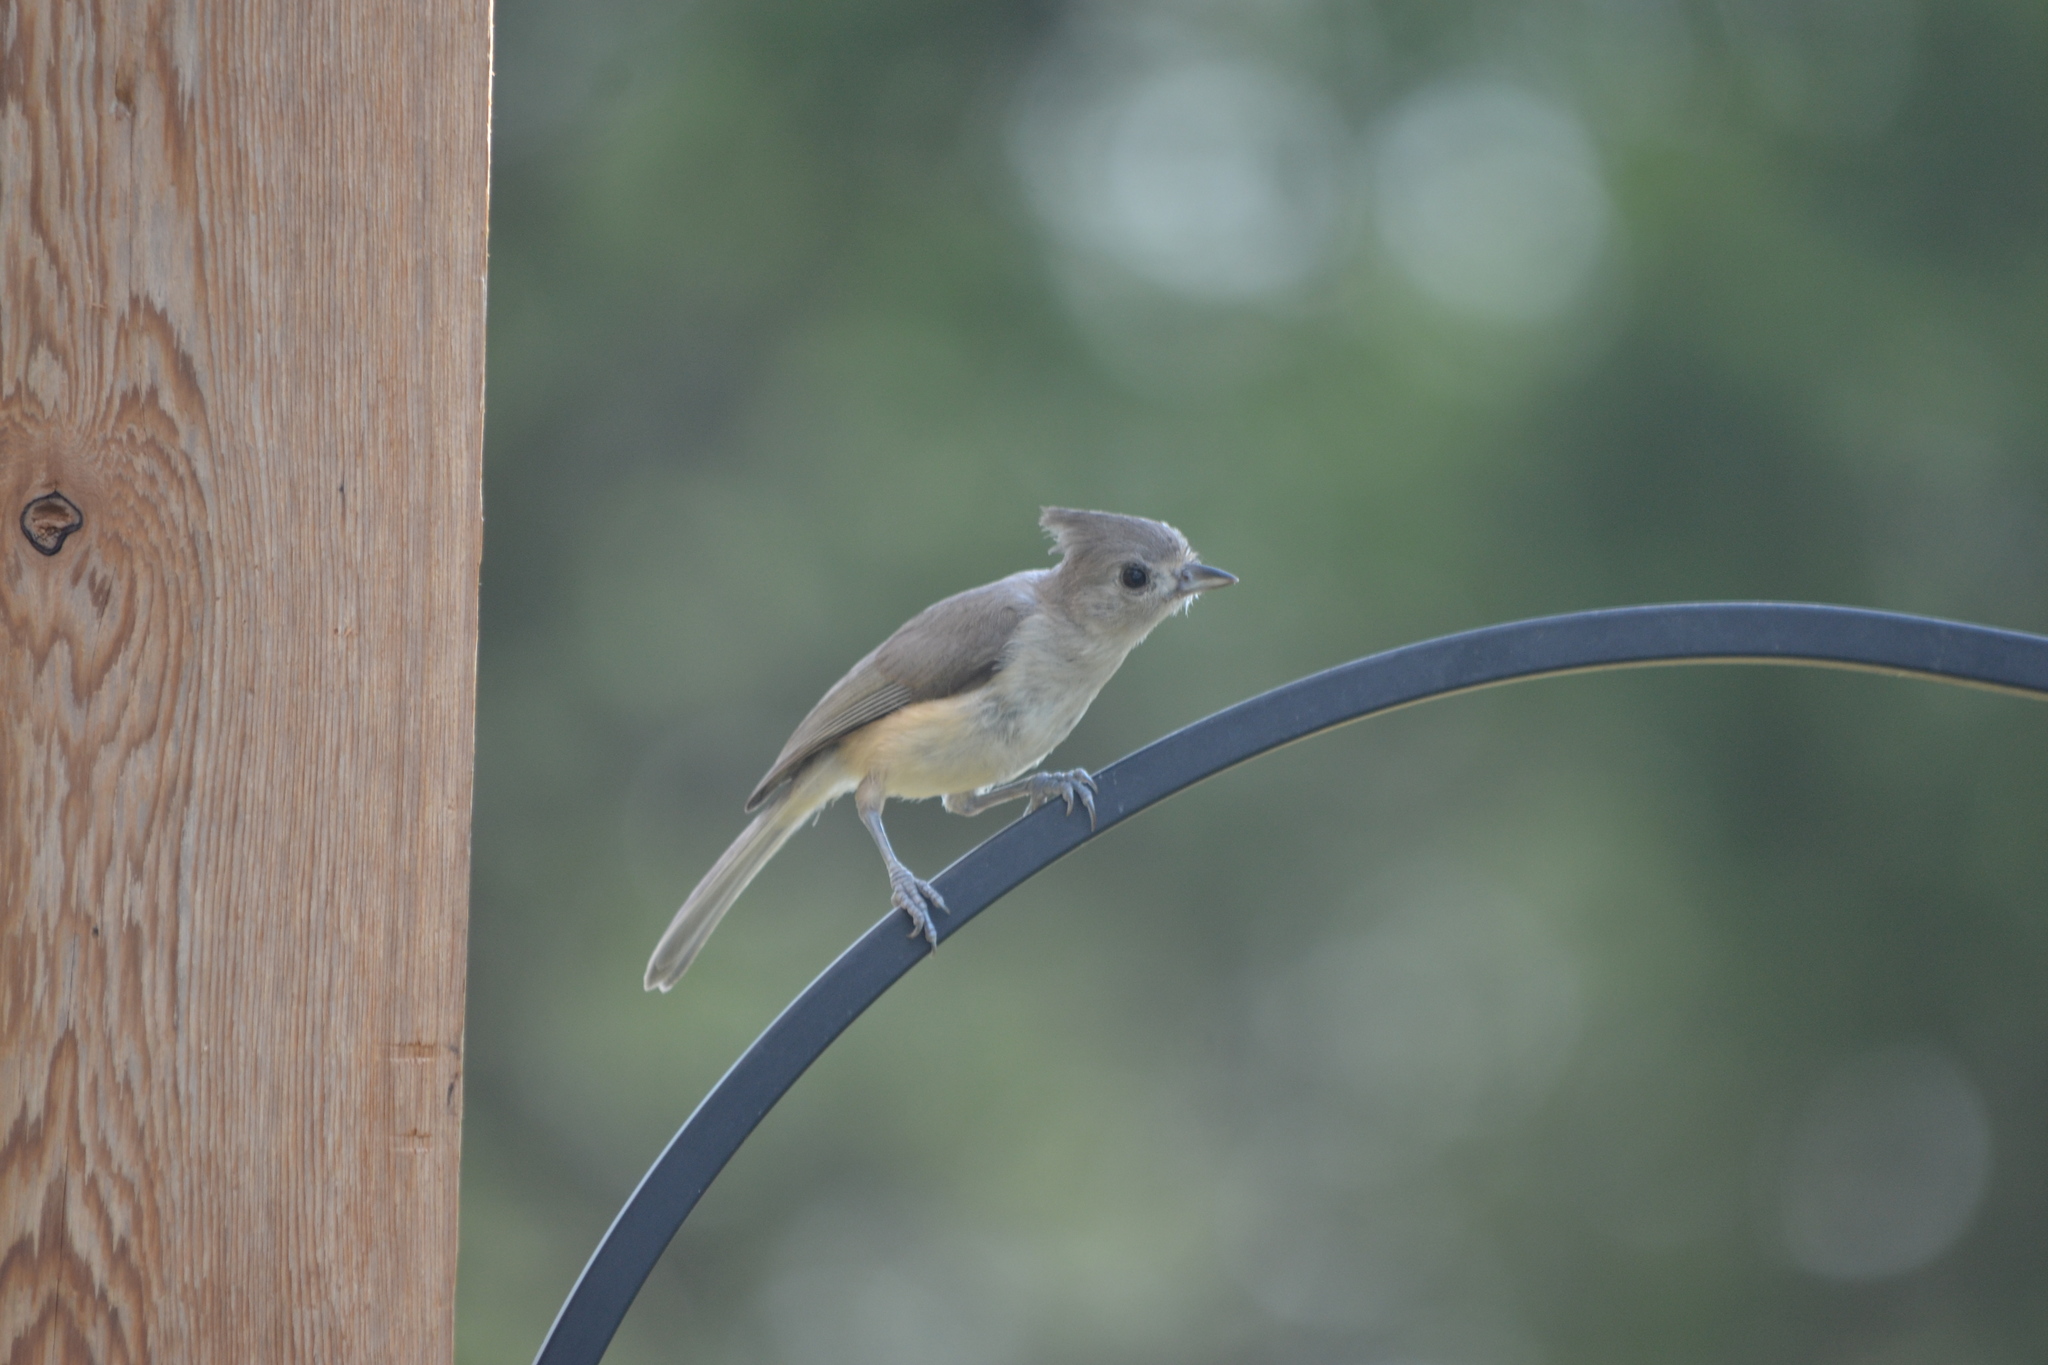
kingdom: Animalia
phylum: Chordata
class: Aves
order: Passeriformes
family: Paridae
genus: Baeolophus
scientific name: Baeolophus atricristatus
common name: Black-crested titmouse
